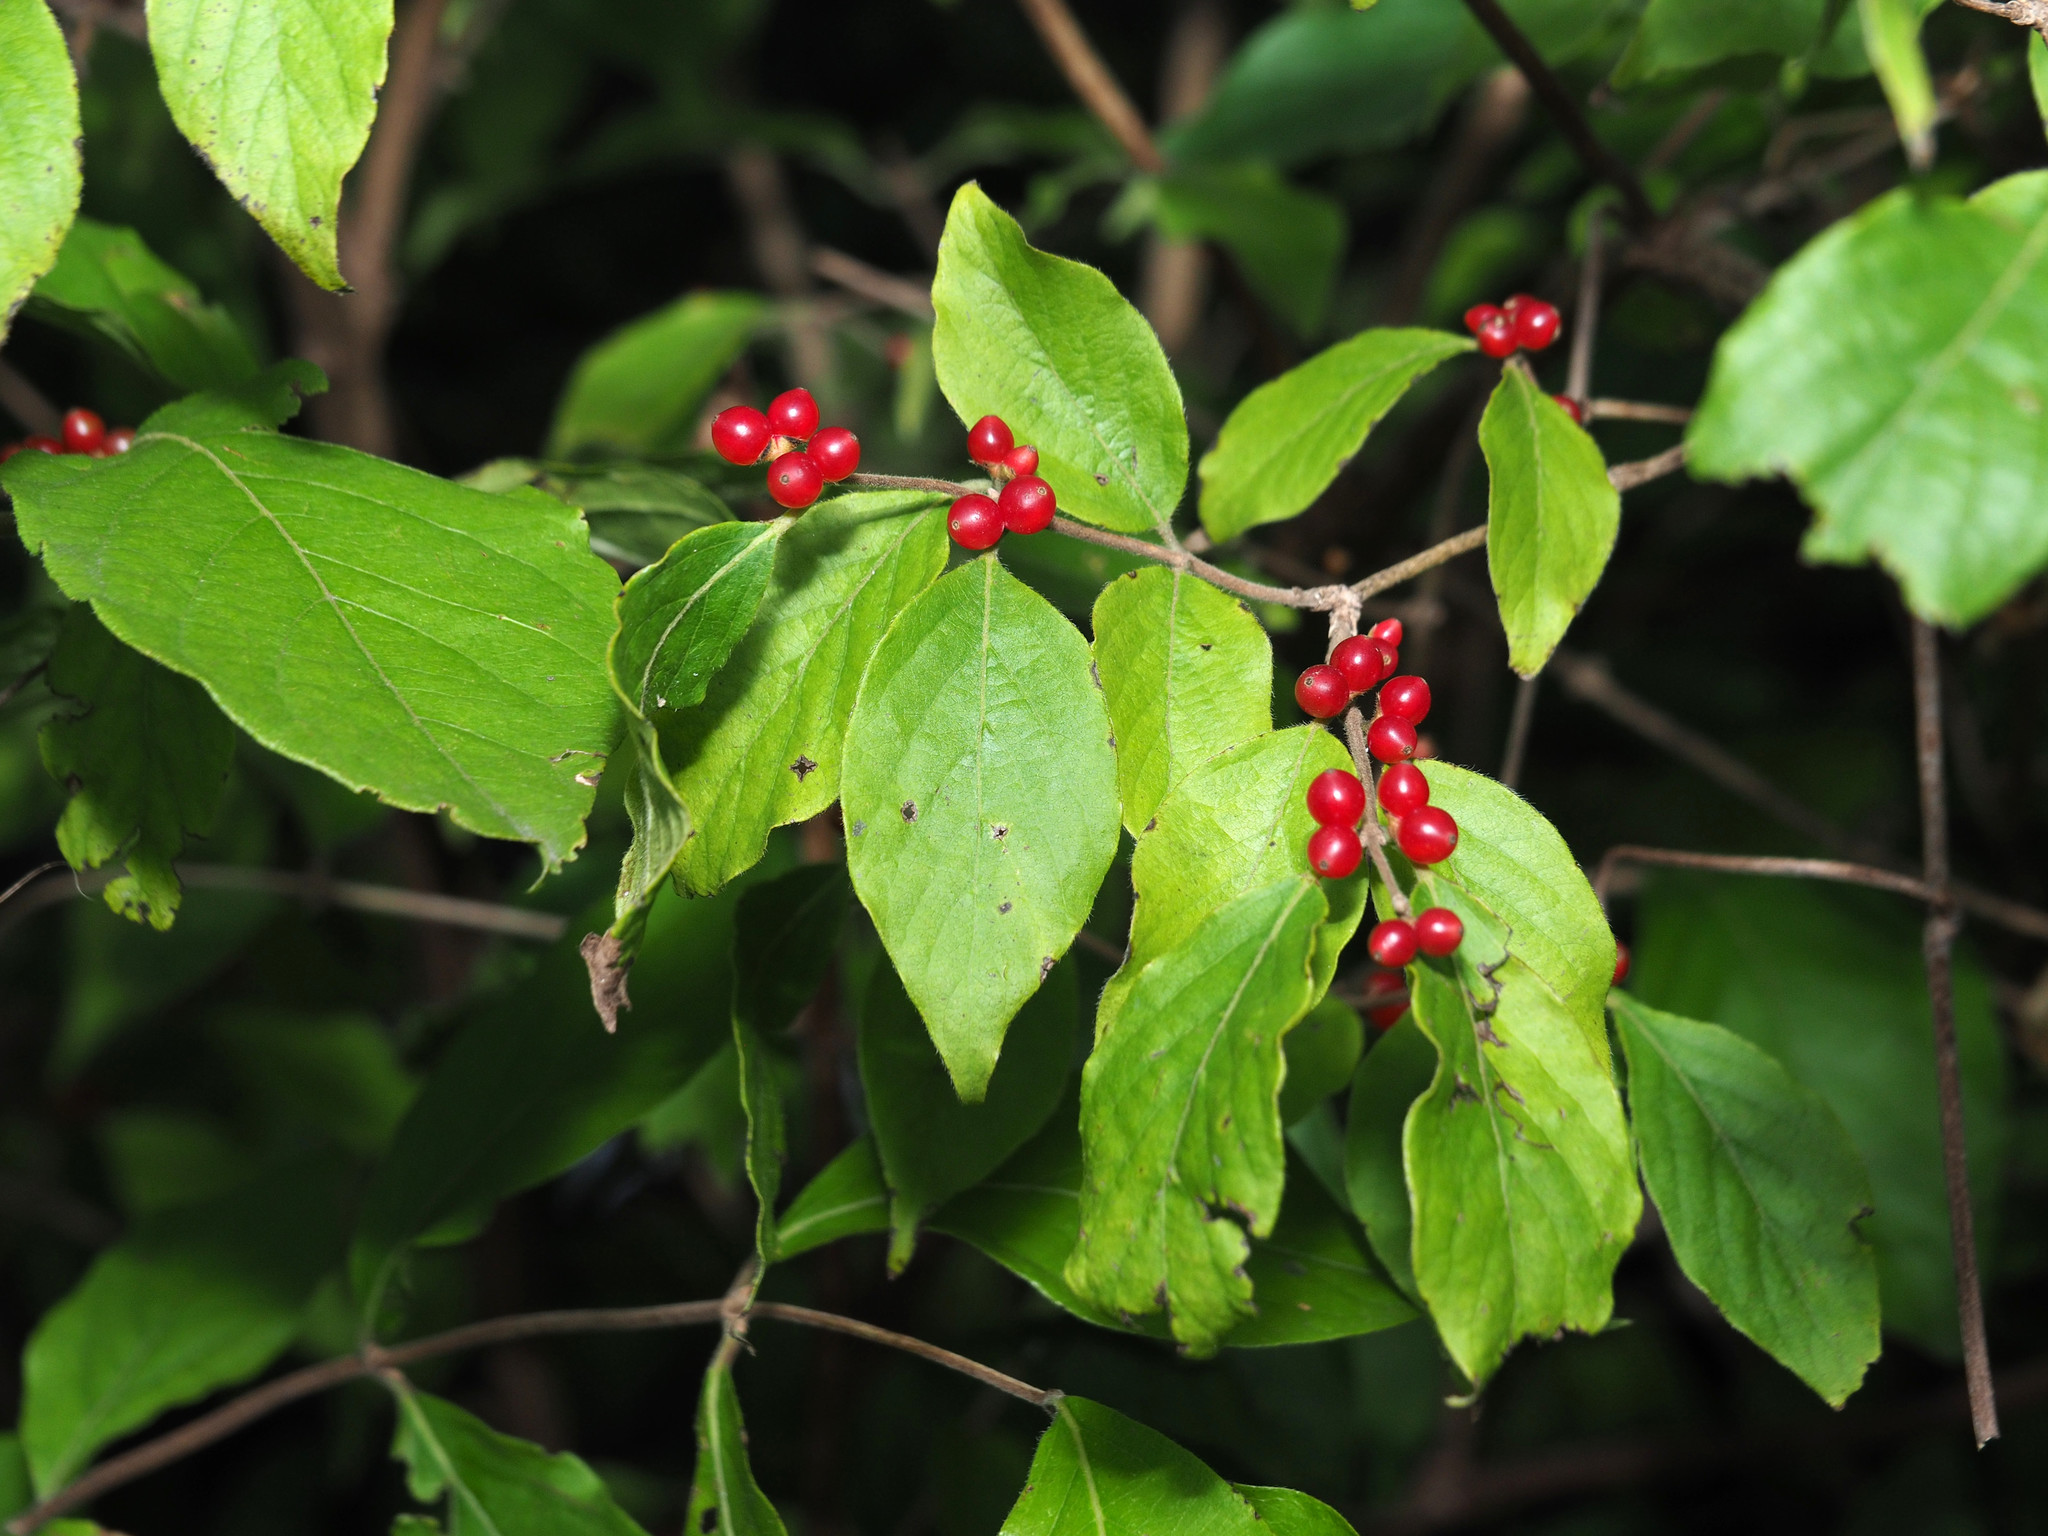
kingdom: Plantae
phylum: Tracheophyta
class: Magnoliopsida
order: Dipsacales
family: Caprifoliaceae
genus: Lonicera
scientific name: Lonicera maackii
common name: Amur honeysuckle
